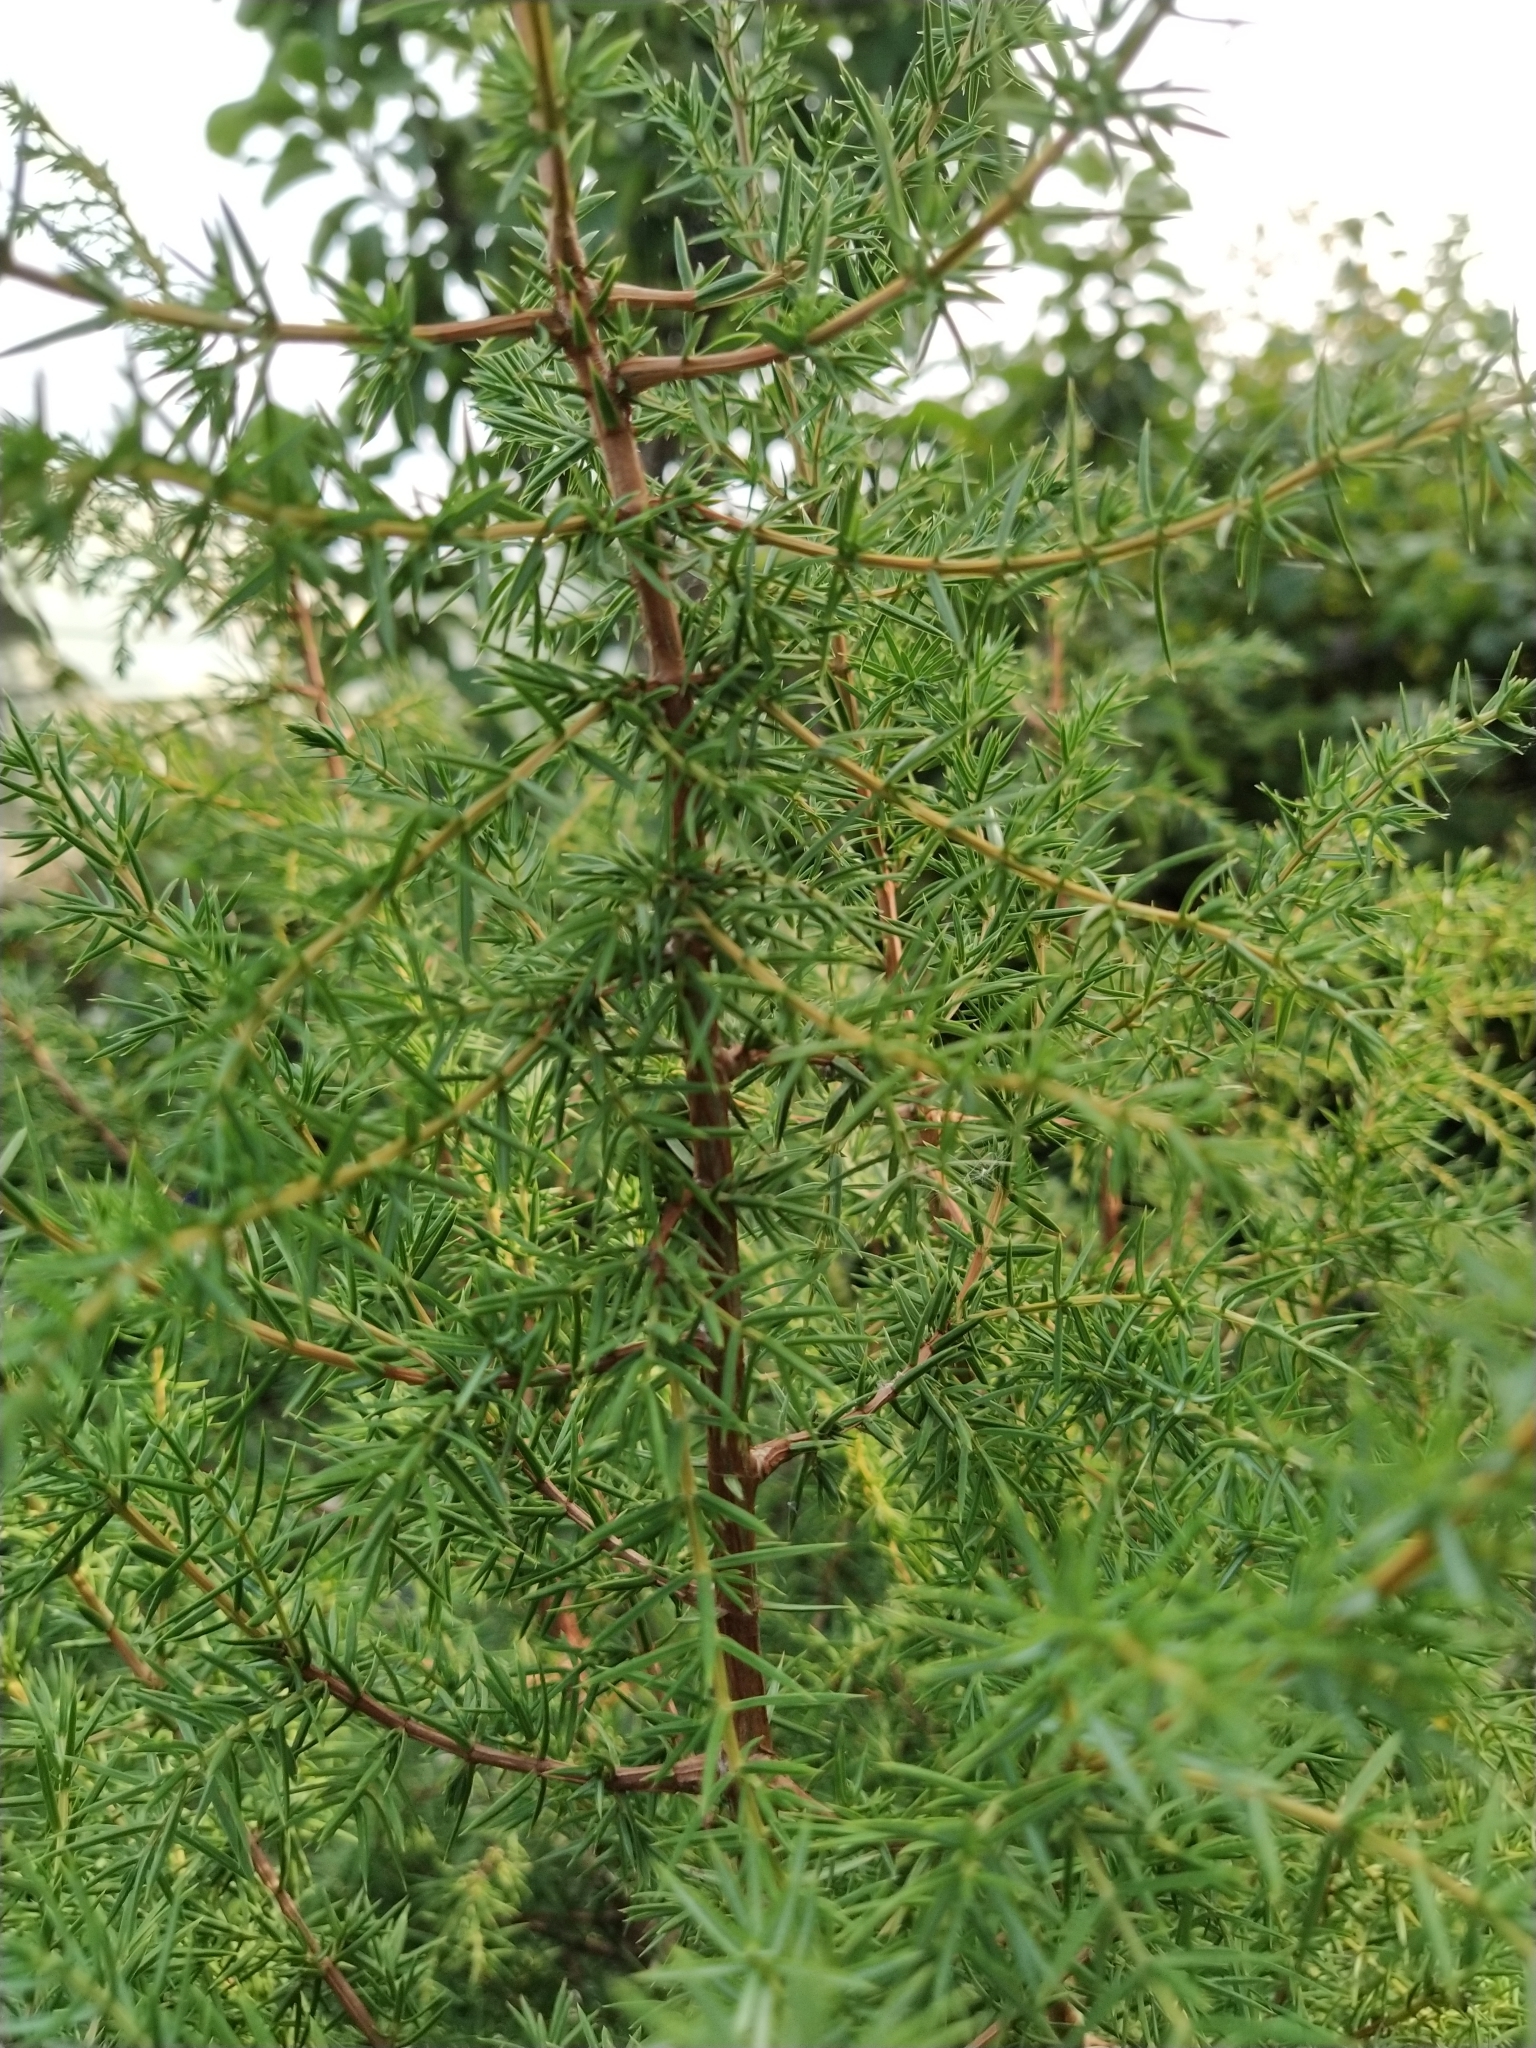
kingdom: Plantae
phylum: Tracheophyta
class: Pinopsida
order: Pinales
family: Cupressaceae
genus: Juniperus
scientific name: Juniperus communis
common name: Common juniper
